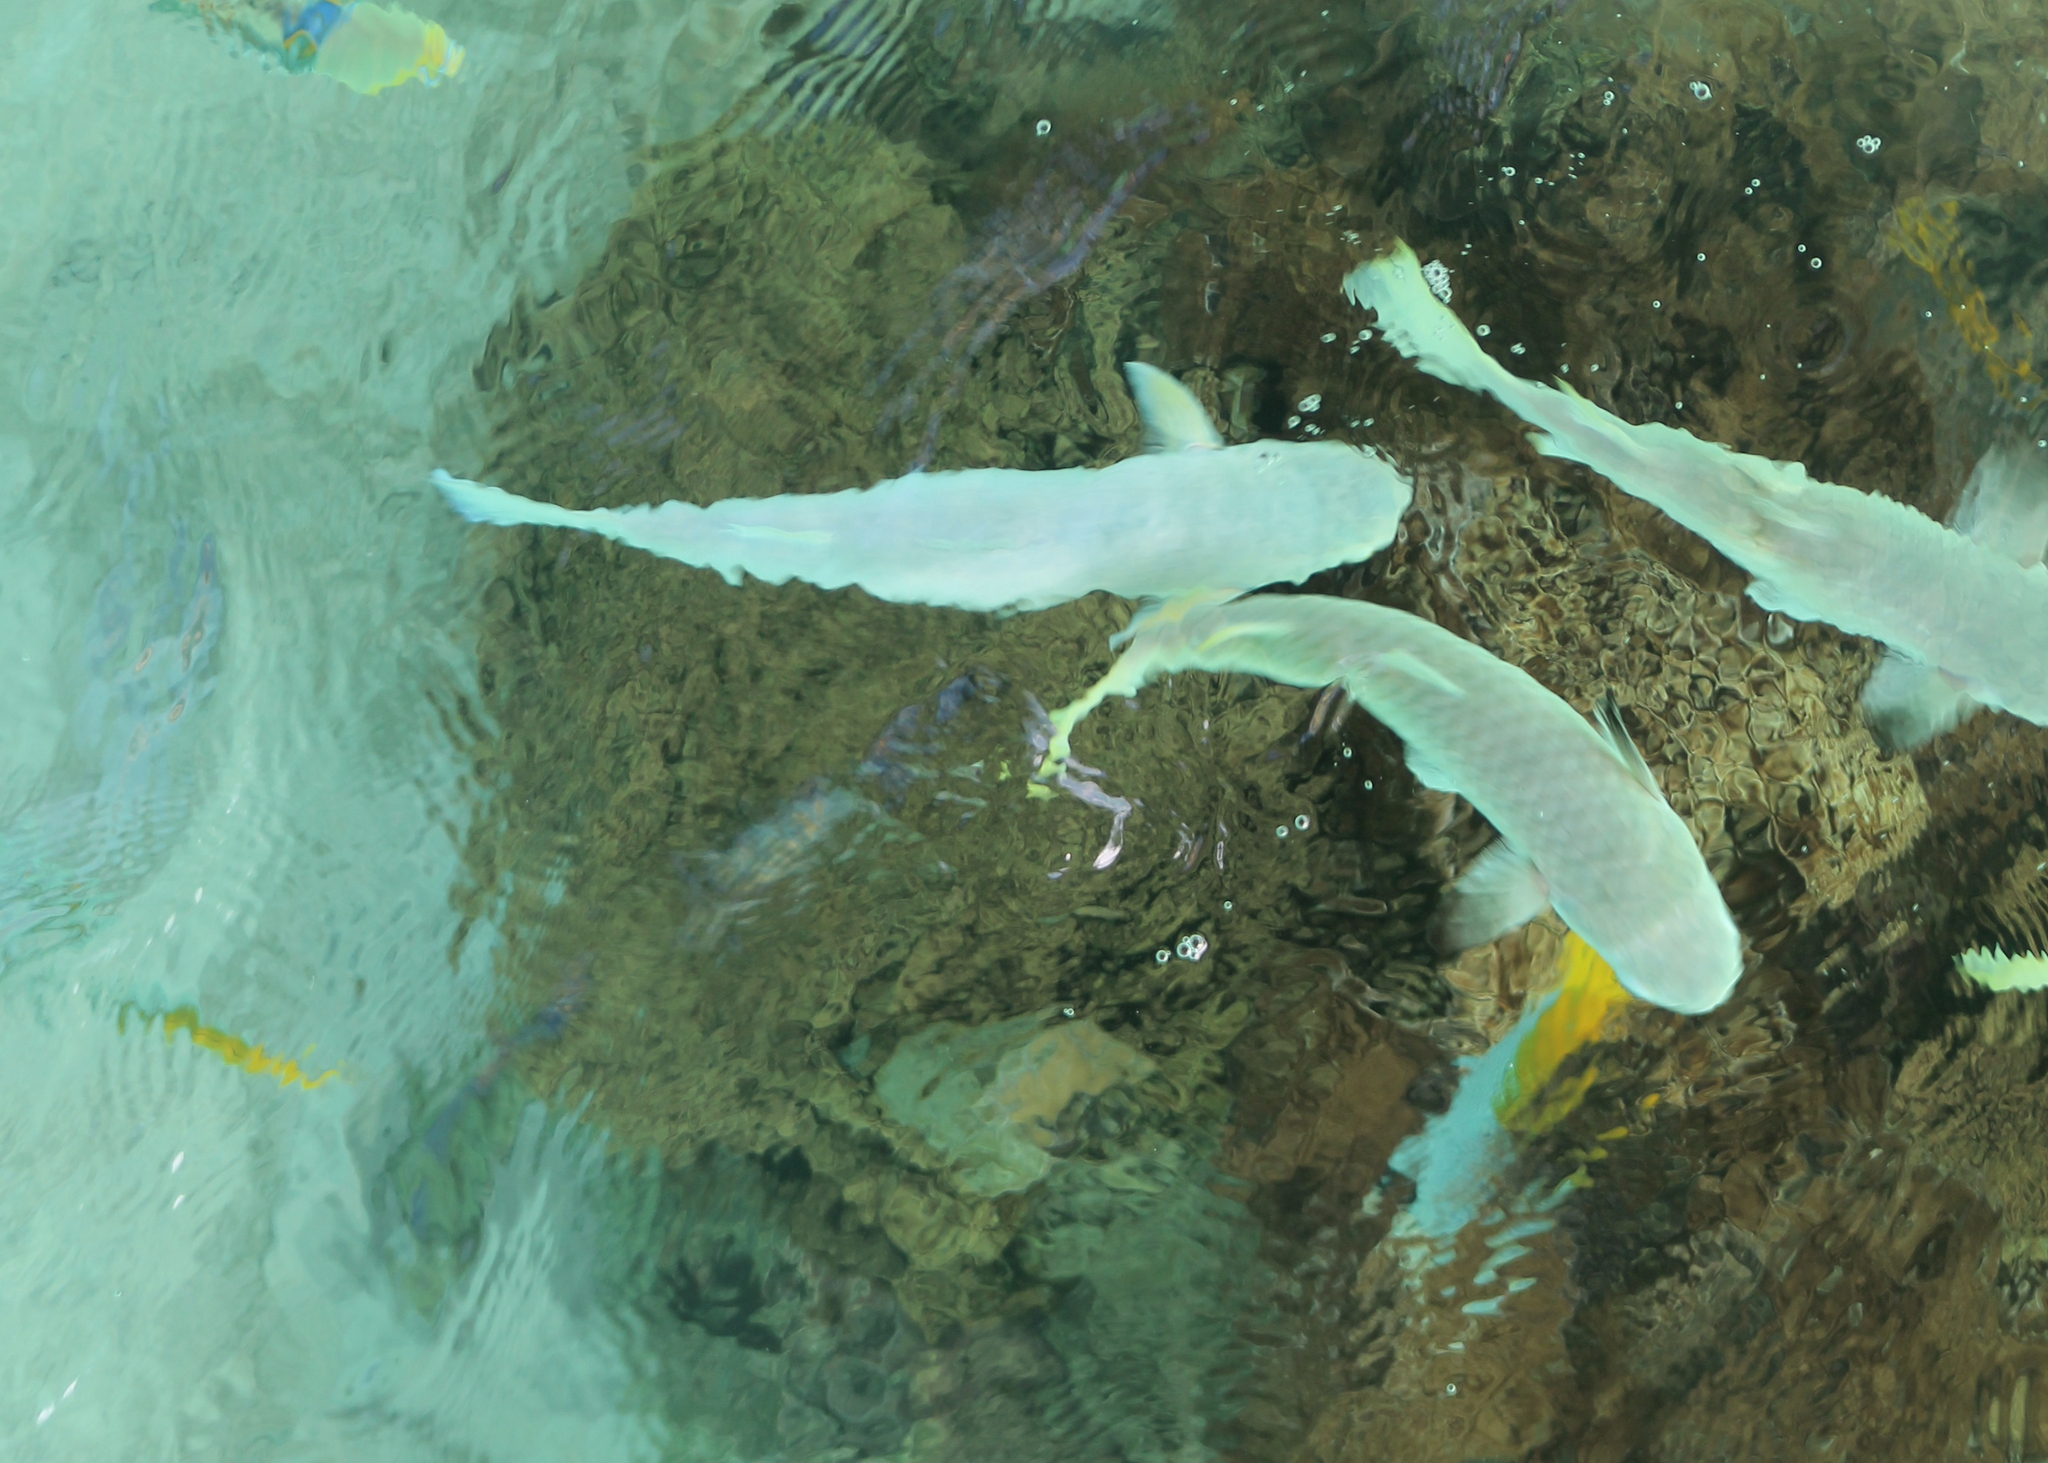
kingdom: Animalia
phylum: Chordata
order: Mugiliformes
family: Mugilidae
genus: Ellochelon
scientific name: Ellochelon vaigiensis
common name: Squaretail mullet
